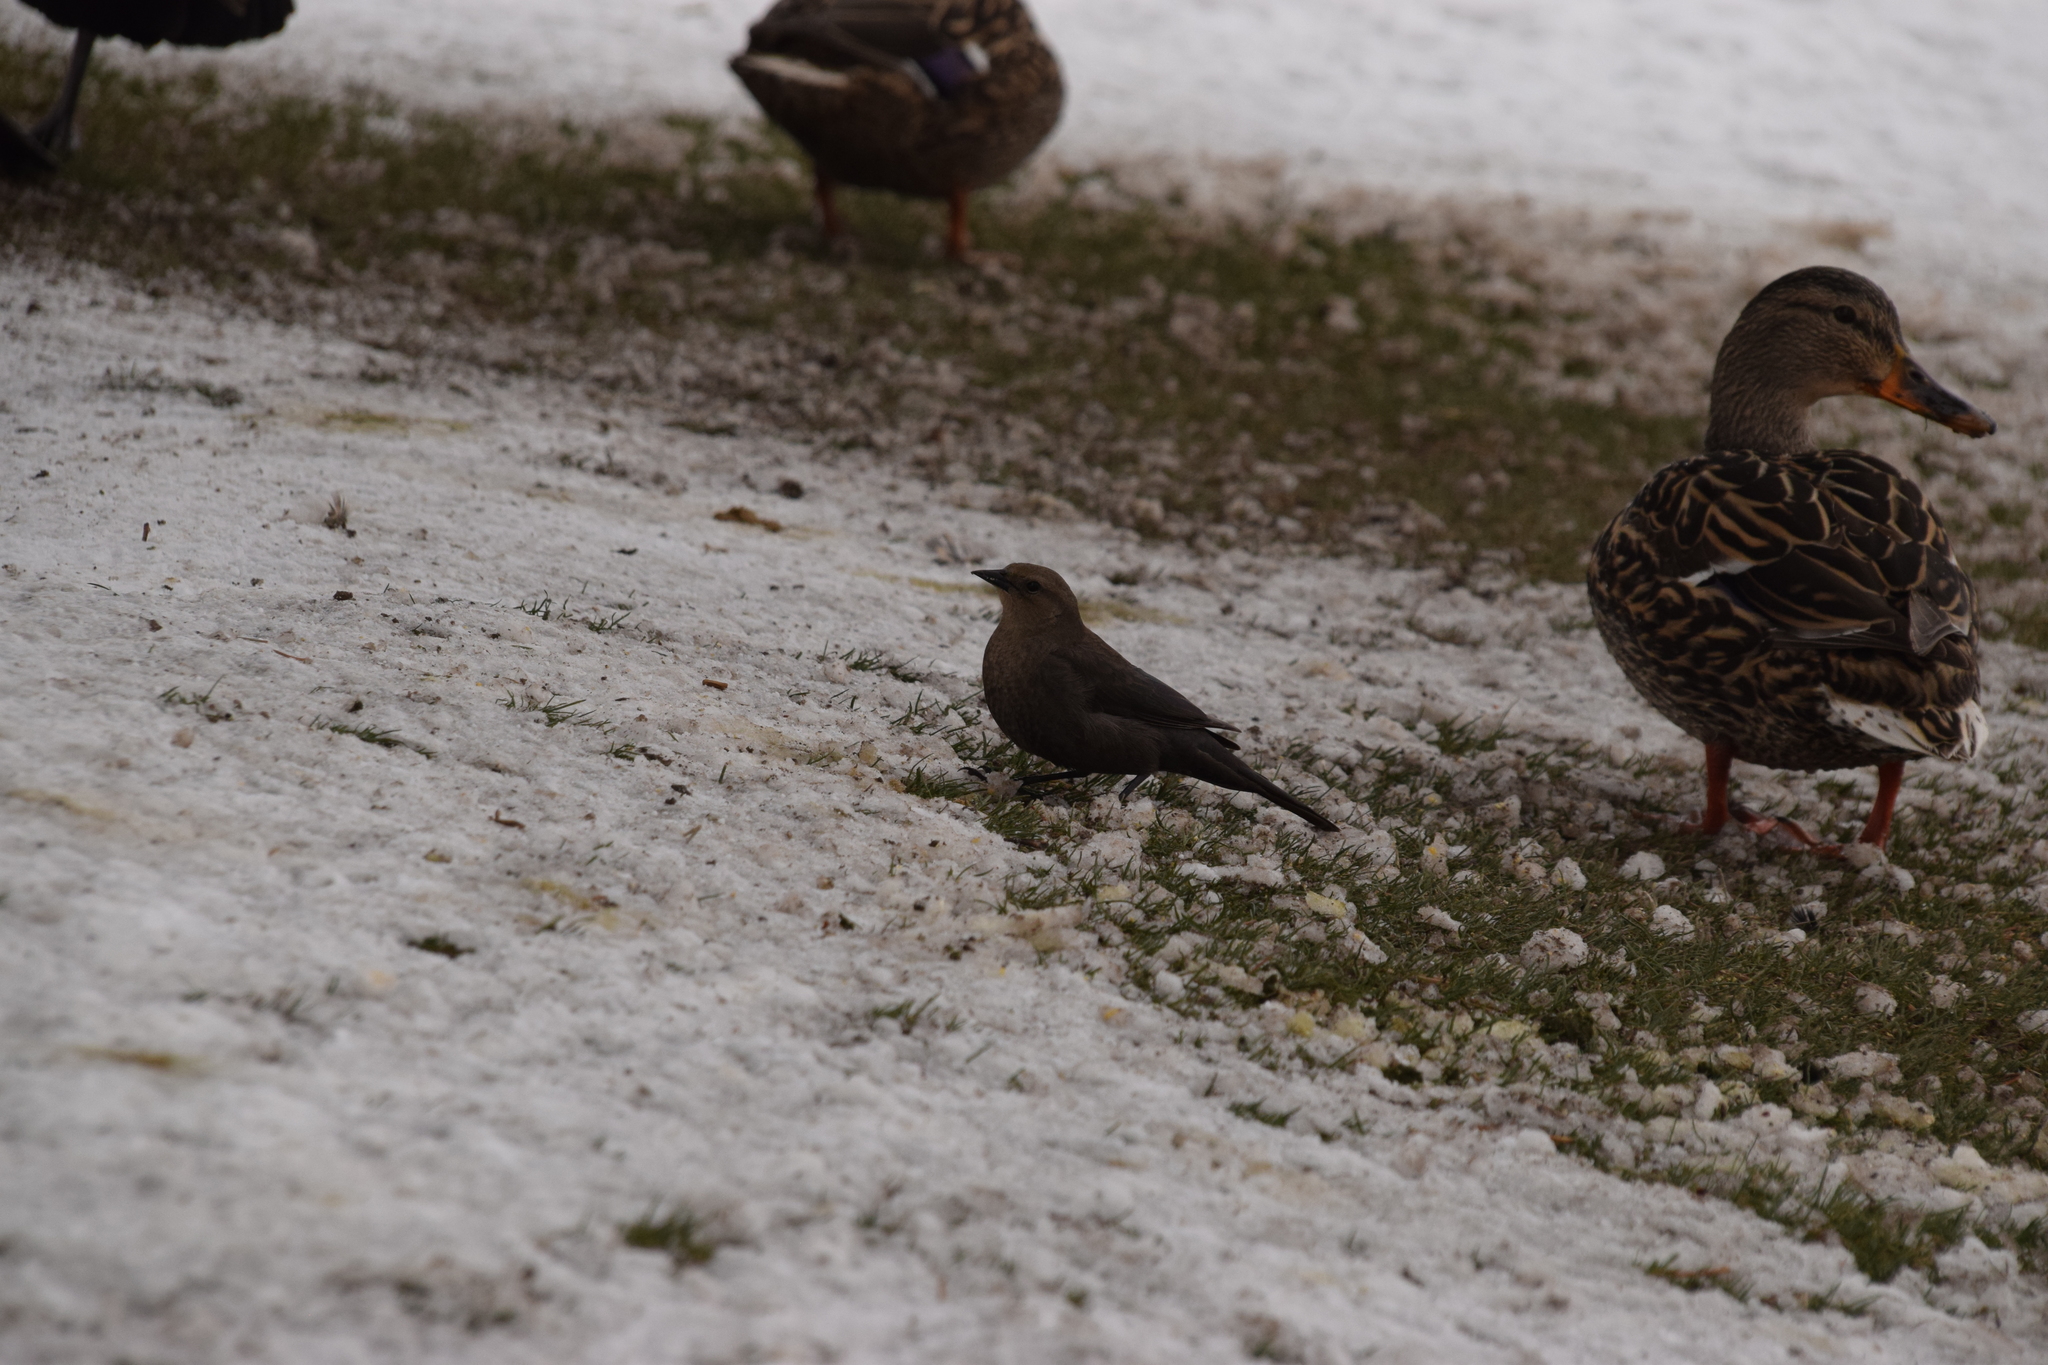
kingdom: Animalia
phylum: Chordata
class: Aves
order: Passeriformes
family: Icteridae
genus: Euphagus
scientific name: Euphagus cyanocephalus
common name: Brewer's blackbird
